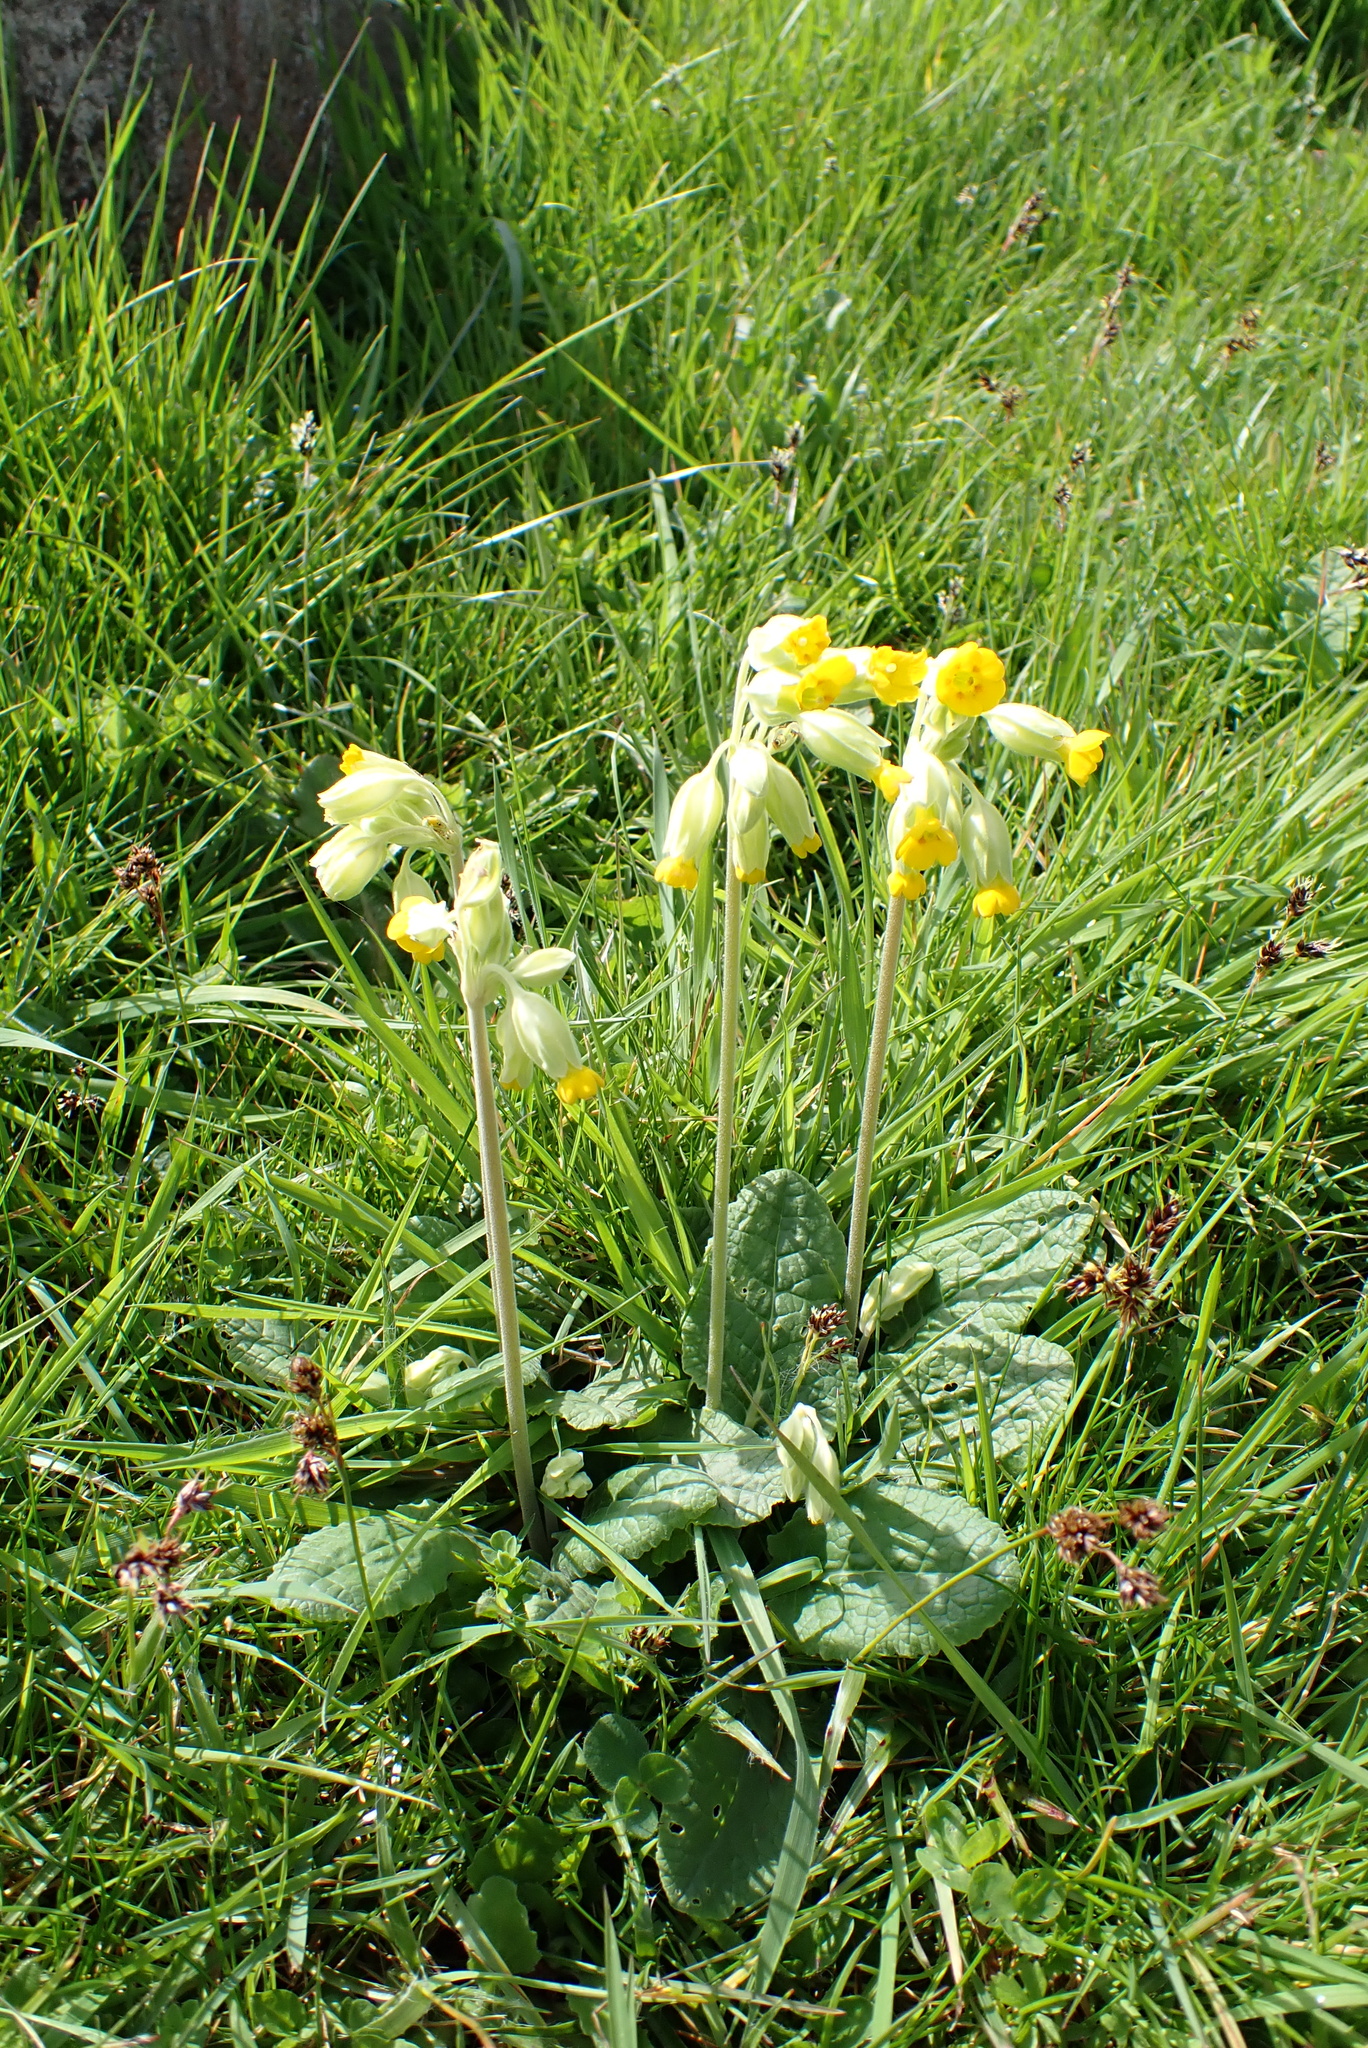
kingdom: Plantae
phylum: Tracheophyta
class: Magnoliopsida
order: Ericales
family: Primulaceae
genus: Primula
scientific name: Primula veris
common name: Cowslip
